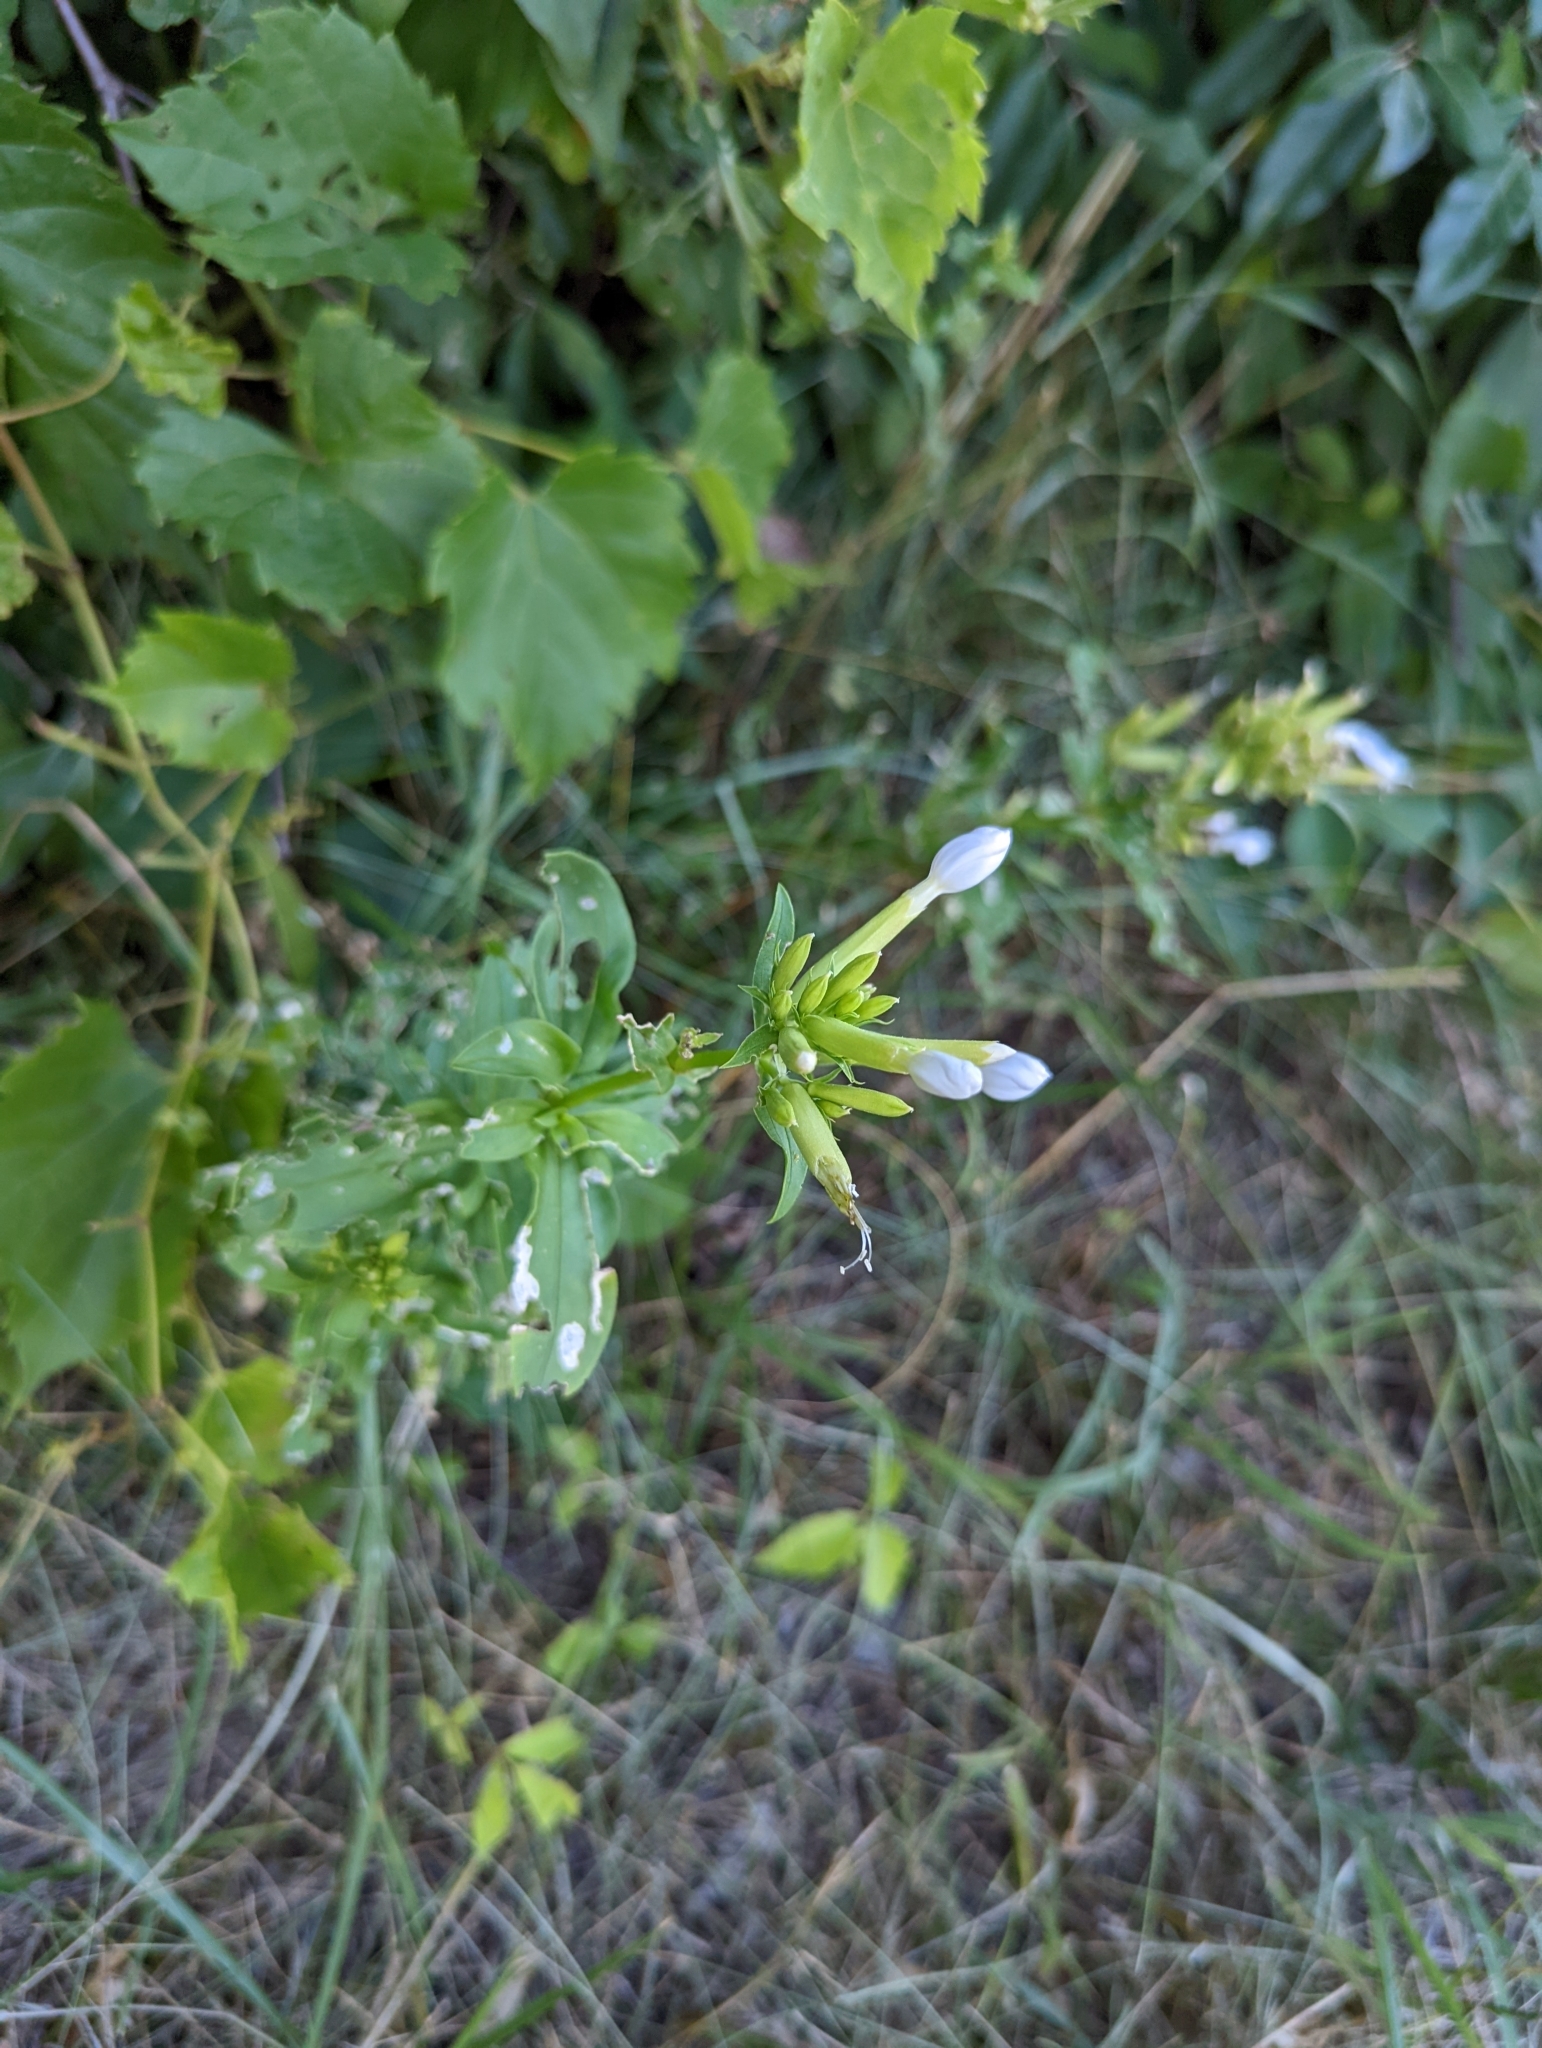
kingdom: Plantae
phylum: Tracheophyta
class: Magnoliopsida
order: Caryophyllales
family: Caryophyllaceae
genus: Saponaria
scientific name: Saponaria officinalis
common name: Soapwort
